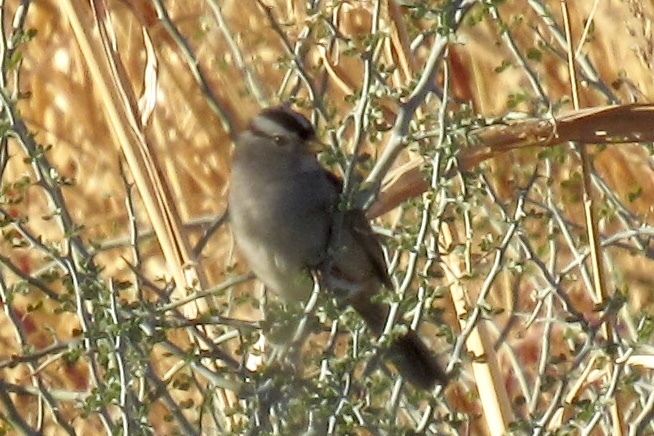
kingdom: Animalia
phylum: Chordata
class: Aves
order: Passeriformes
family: Passerellidae
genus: Zonotrichia
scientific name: Zonotrichia leucophrys
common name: White-crowned sparrow
